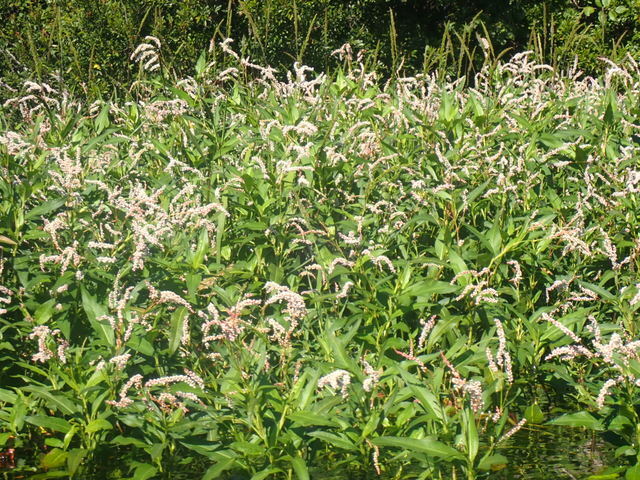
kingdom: Plantae
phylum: Tracheophyta
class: Magnoliopsida
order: Caryophyllales
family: Polygonaceae
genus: Persicaria
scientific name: Persicaria glabra
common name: Denseflower knotweed
